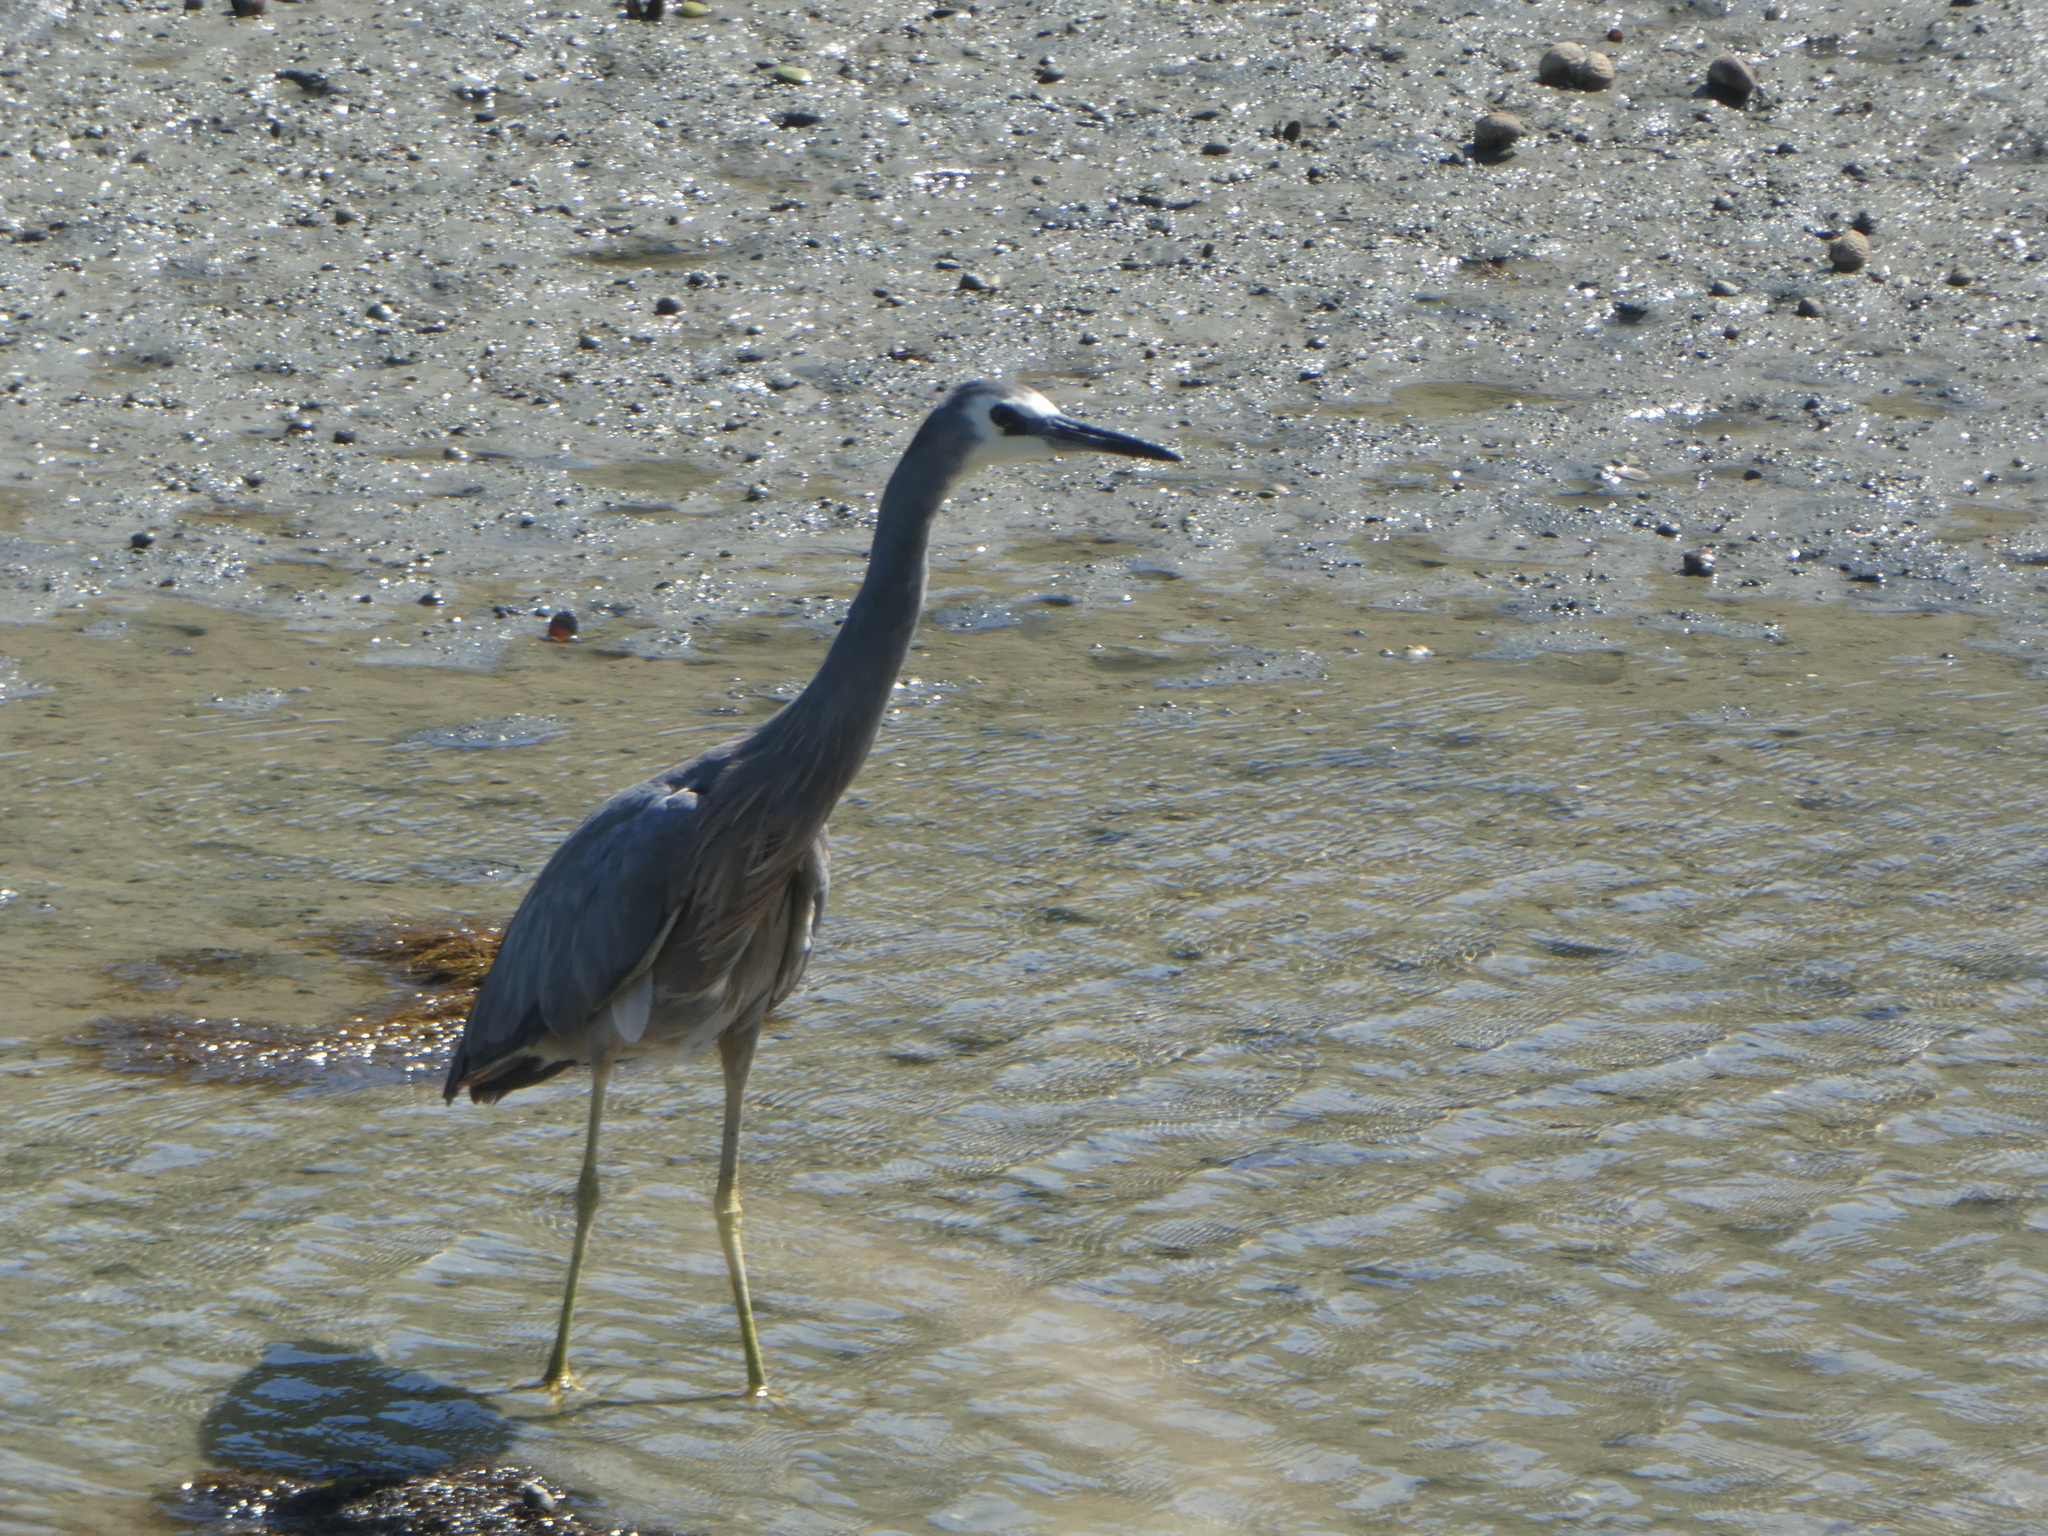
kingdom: Animalia
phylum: Chordata
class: Aves
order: Pelecaniformes
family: Ardeidae
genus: Egretta
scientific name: Egretta novaehollandiae
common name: White-faced heron
